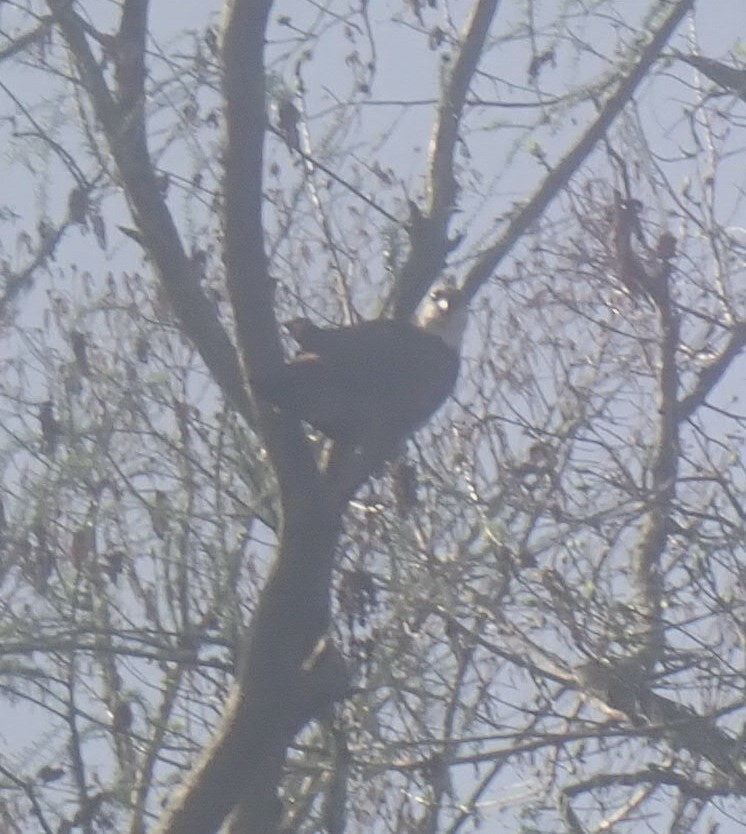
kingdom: Animalia
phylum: Chordata
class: Aves
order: Accipitriformes
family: Pandionidae
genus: Pandion
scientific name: Pandion haliaetus
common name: Osprey
